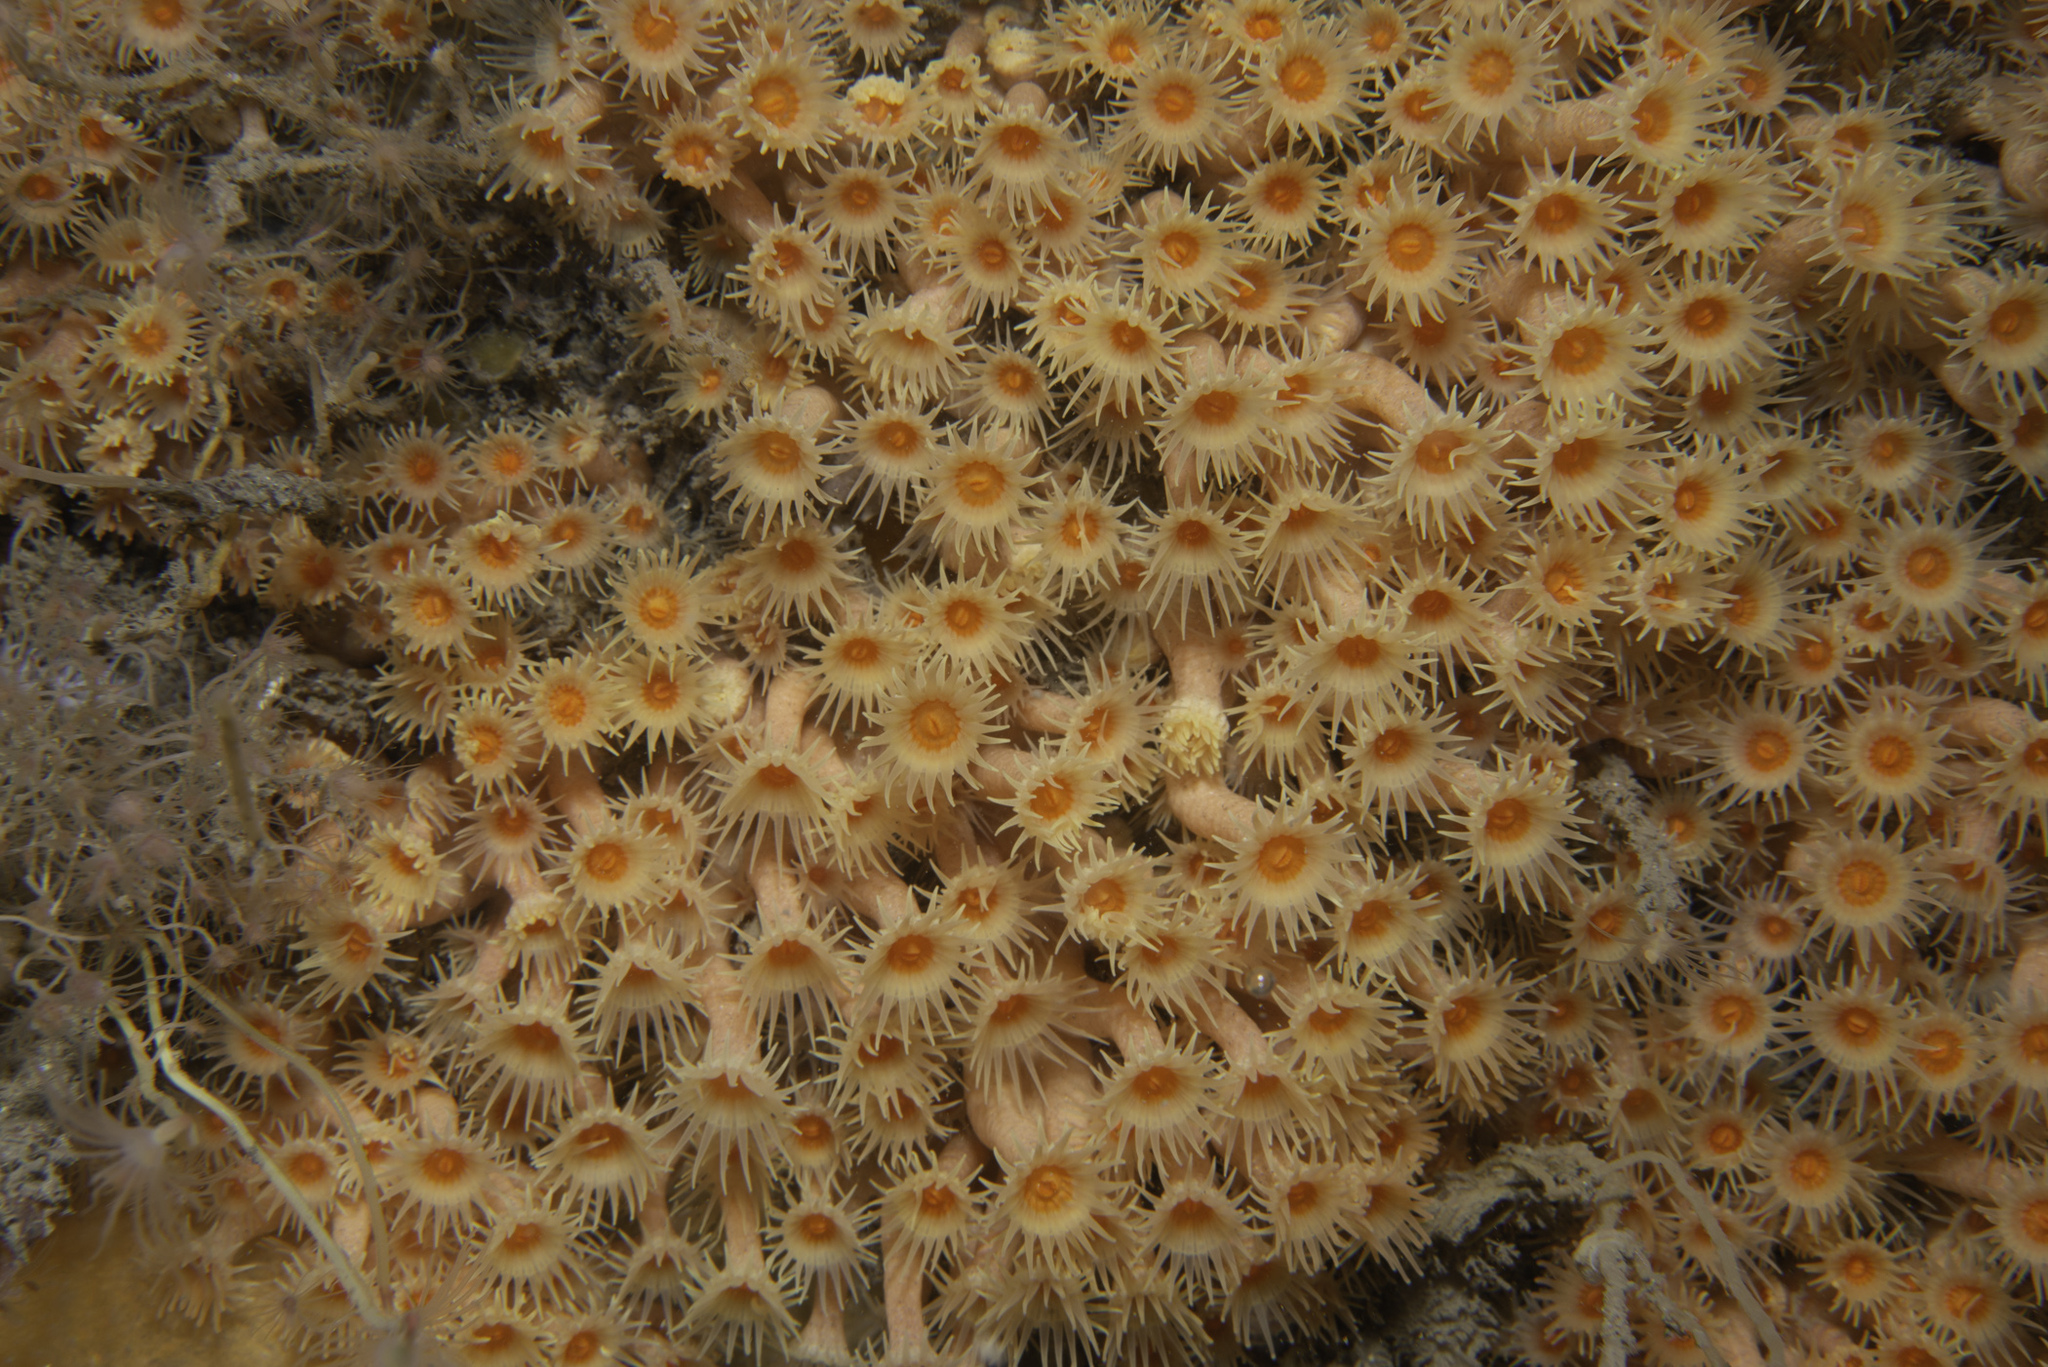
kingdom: Animalia
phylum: Cnidaria
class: Anthozoa
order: Zoantharia
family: Parazoanthidae
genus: Parazoanthus
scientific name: Parazoanthus axinellae
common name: Yellow cluster anemone
